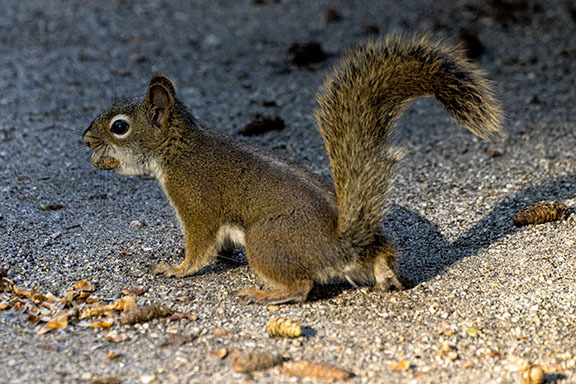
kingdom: Animalia
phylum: Chordata
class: Mammalia
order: Rodentia
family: Sciuridae
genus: Tamiasciurus
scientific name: Tamiasciurus hudsonicus
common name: Red squirrel
